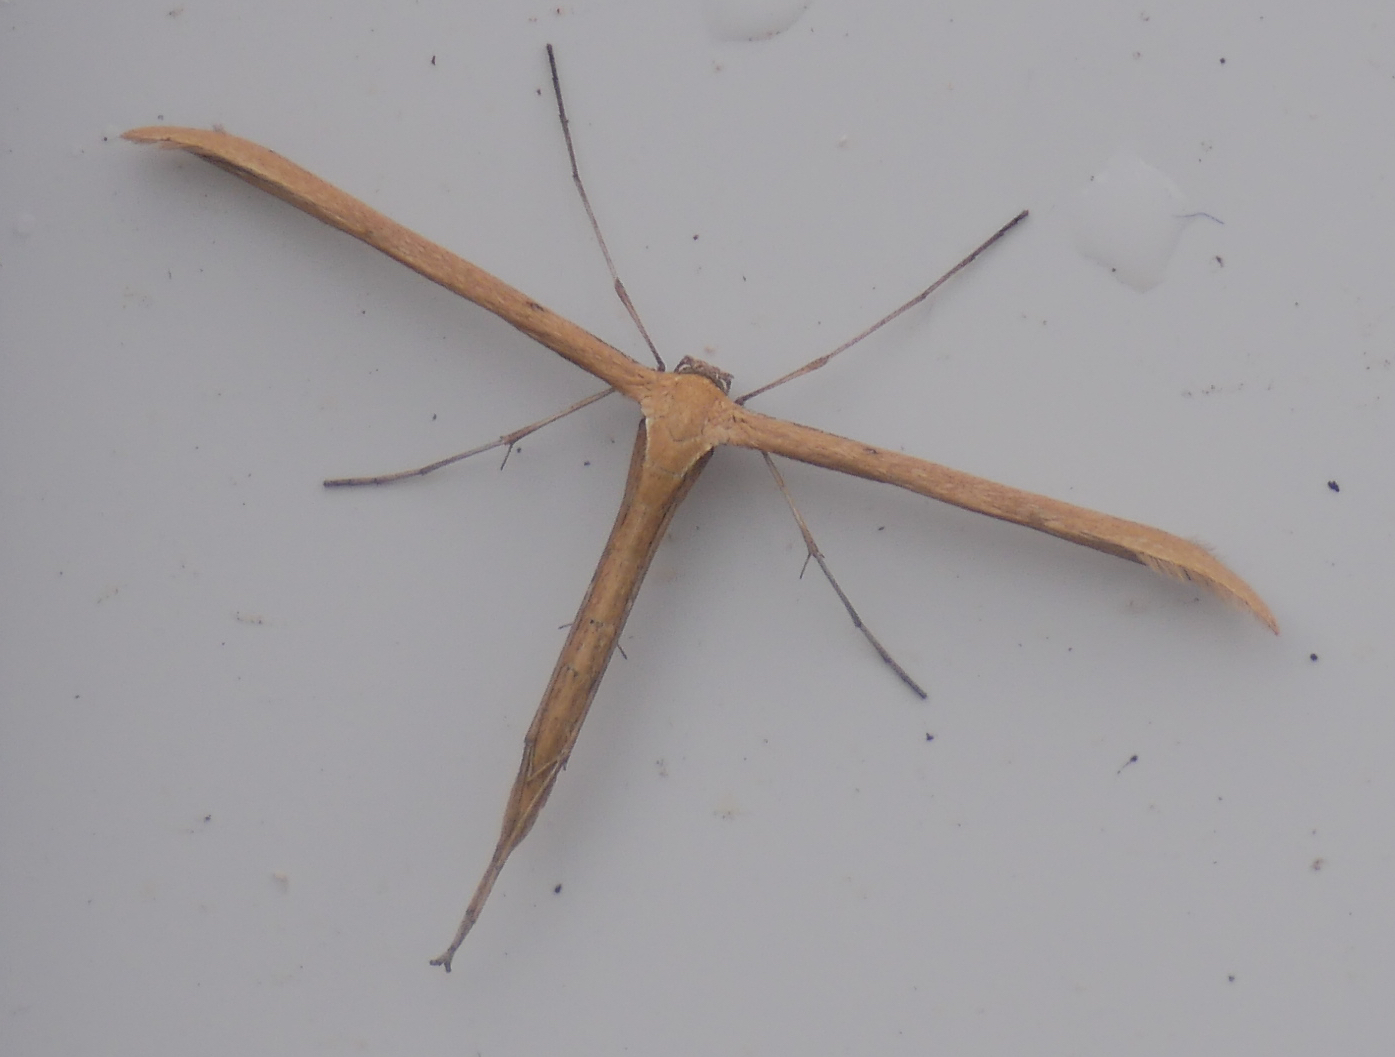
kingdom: Animalia
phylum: Arthropoda
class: Insecta
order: Lepidoptera
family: Pterophoridae
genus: Emmelina
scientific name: Emmelina monodactyla
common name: Common plume
